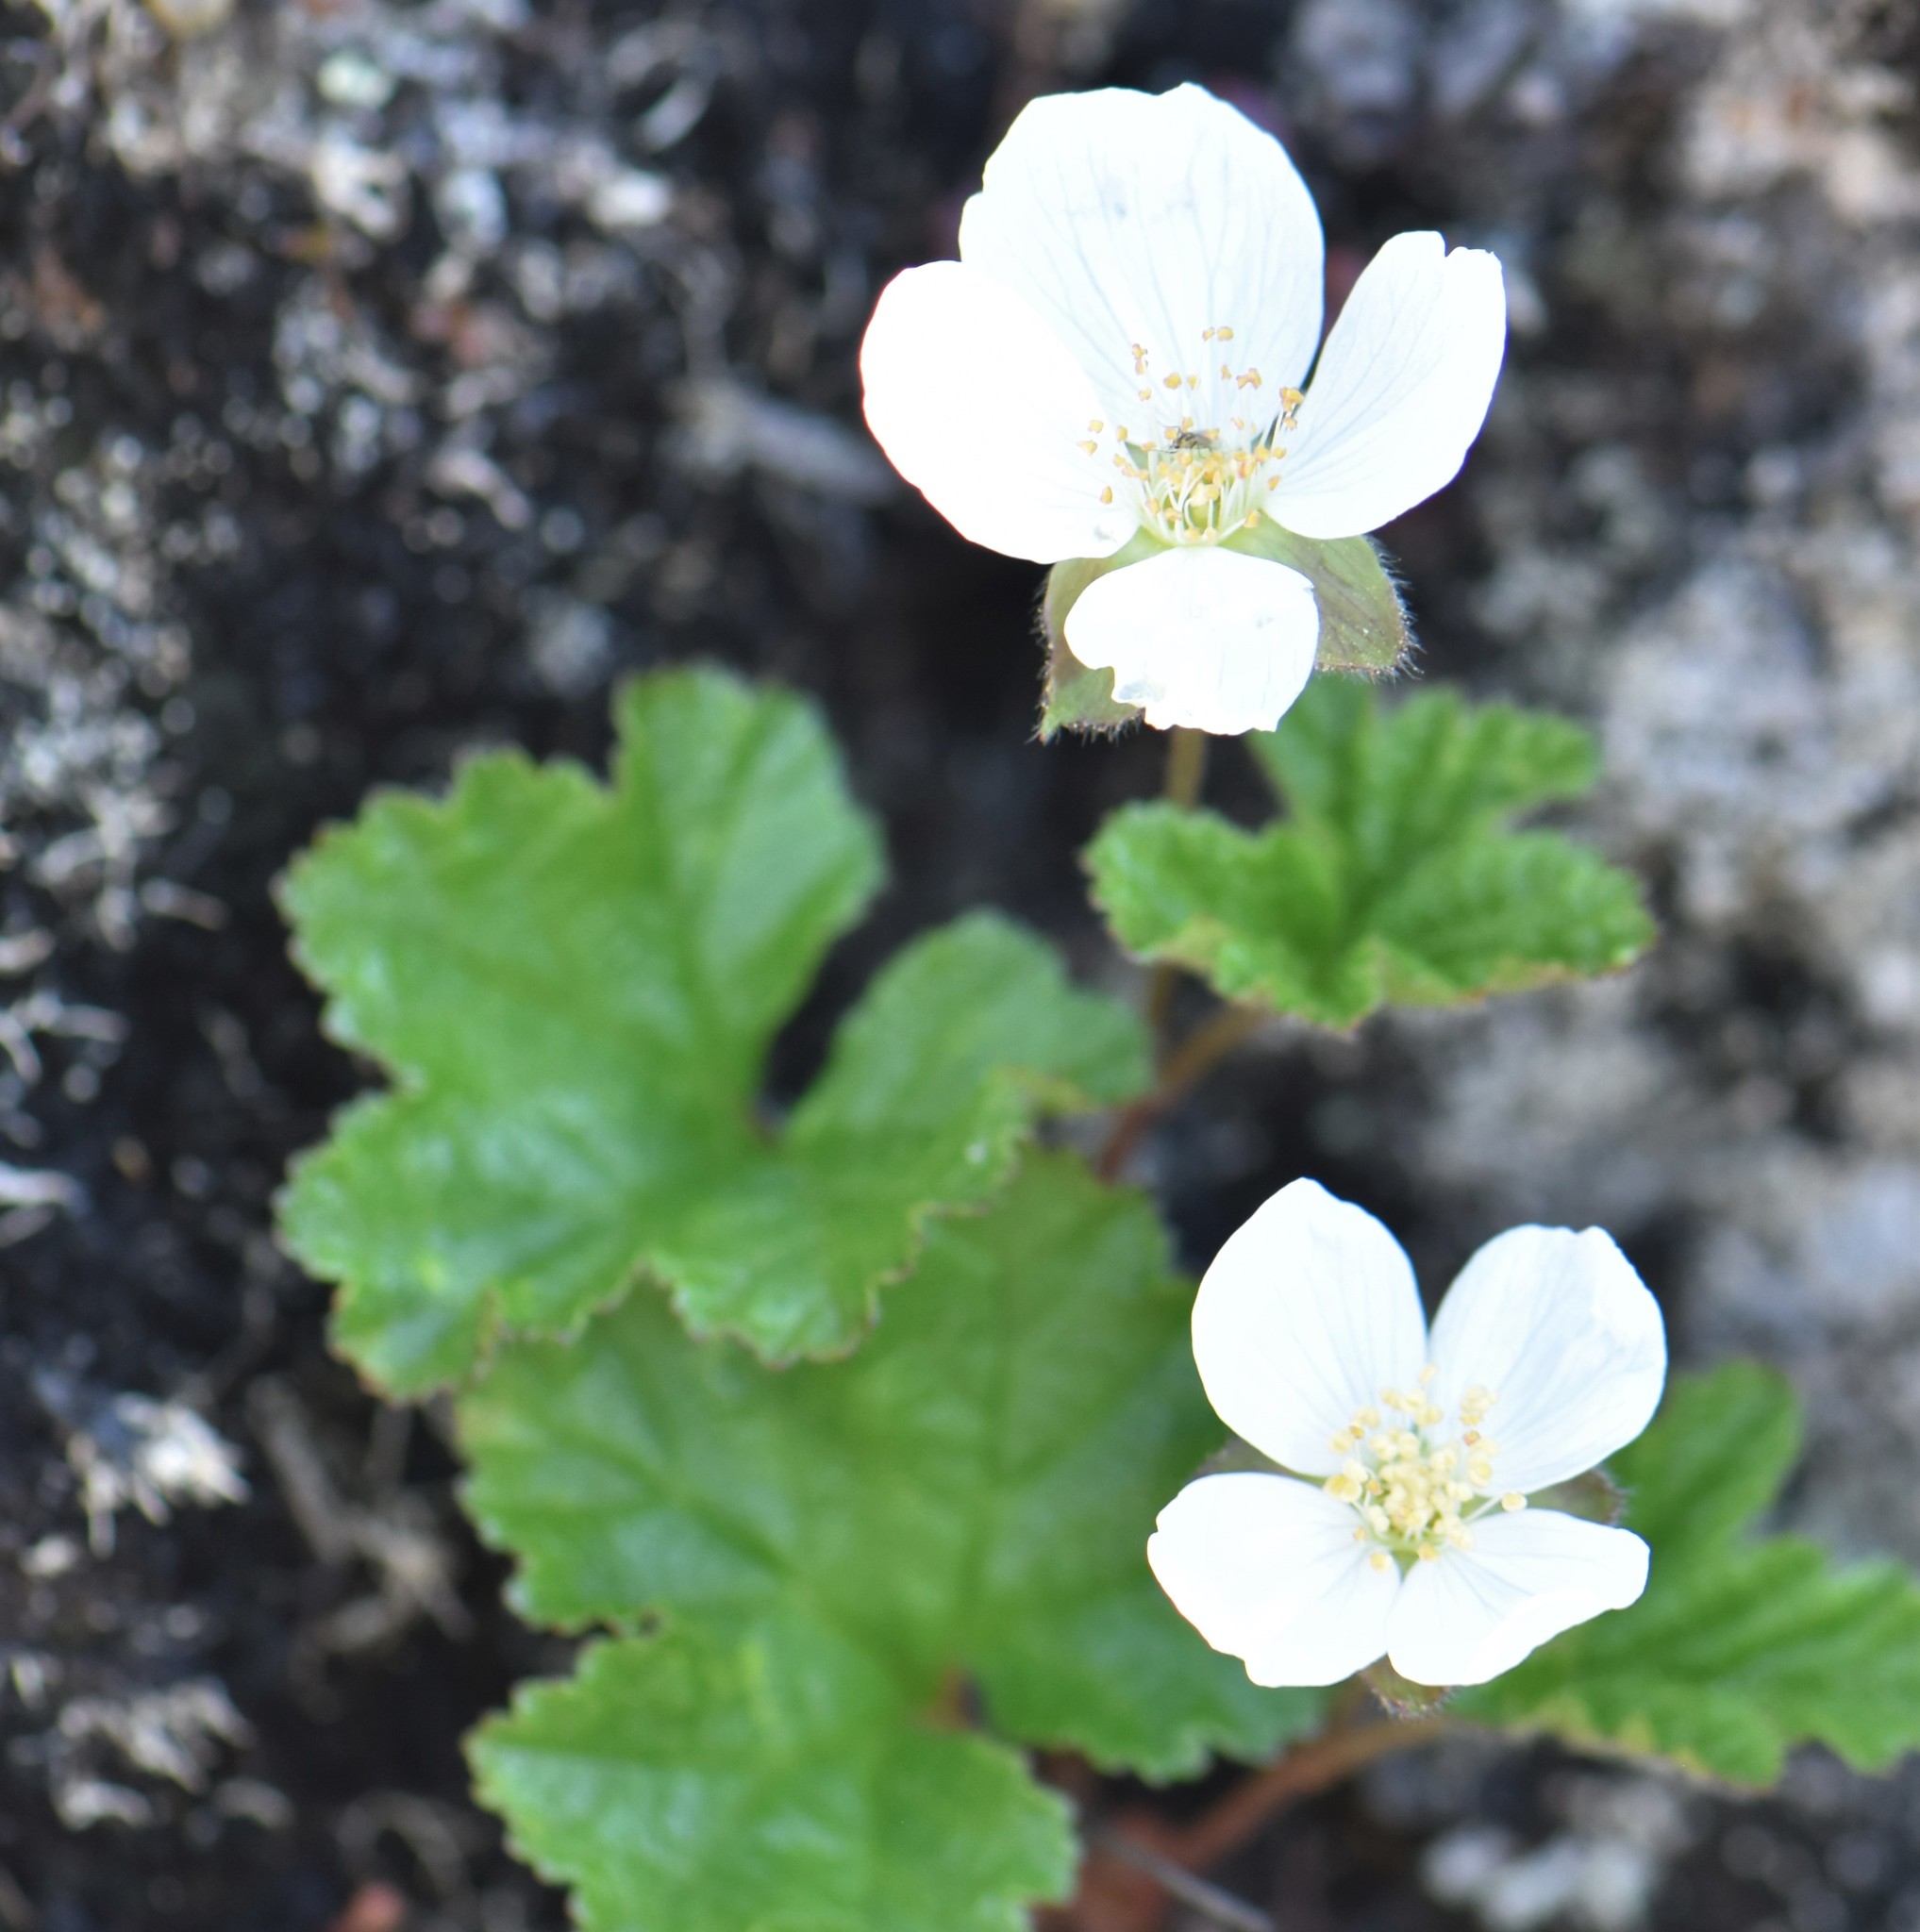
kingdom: Plantae
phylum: Tracheophyta
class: Magnoliopsida
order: Rosales
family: Rosaceae
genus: Rubus
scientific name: Rubus chamaemorus
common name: Cloudberry
